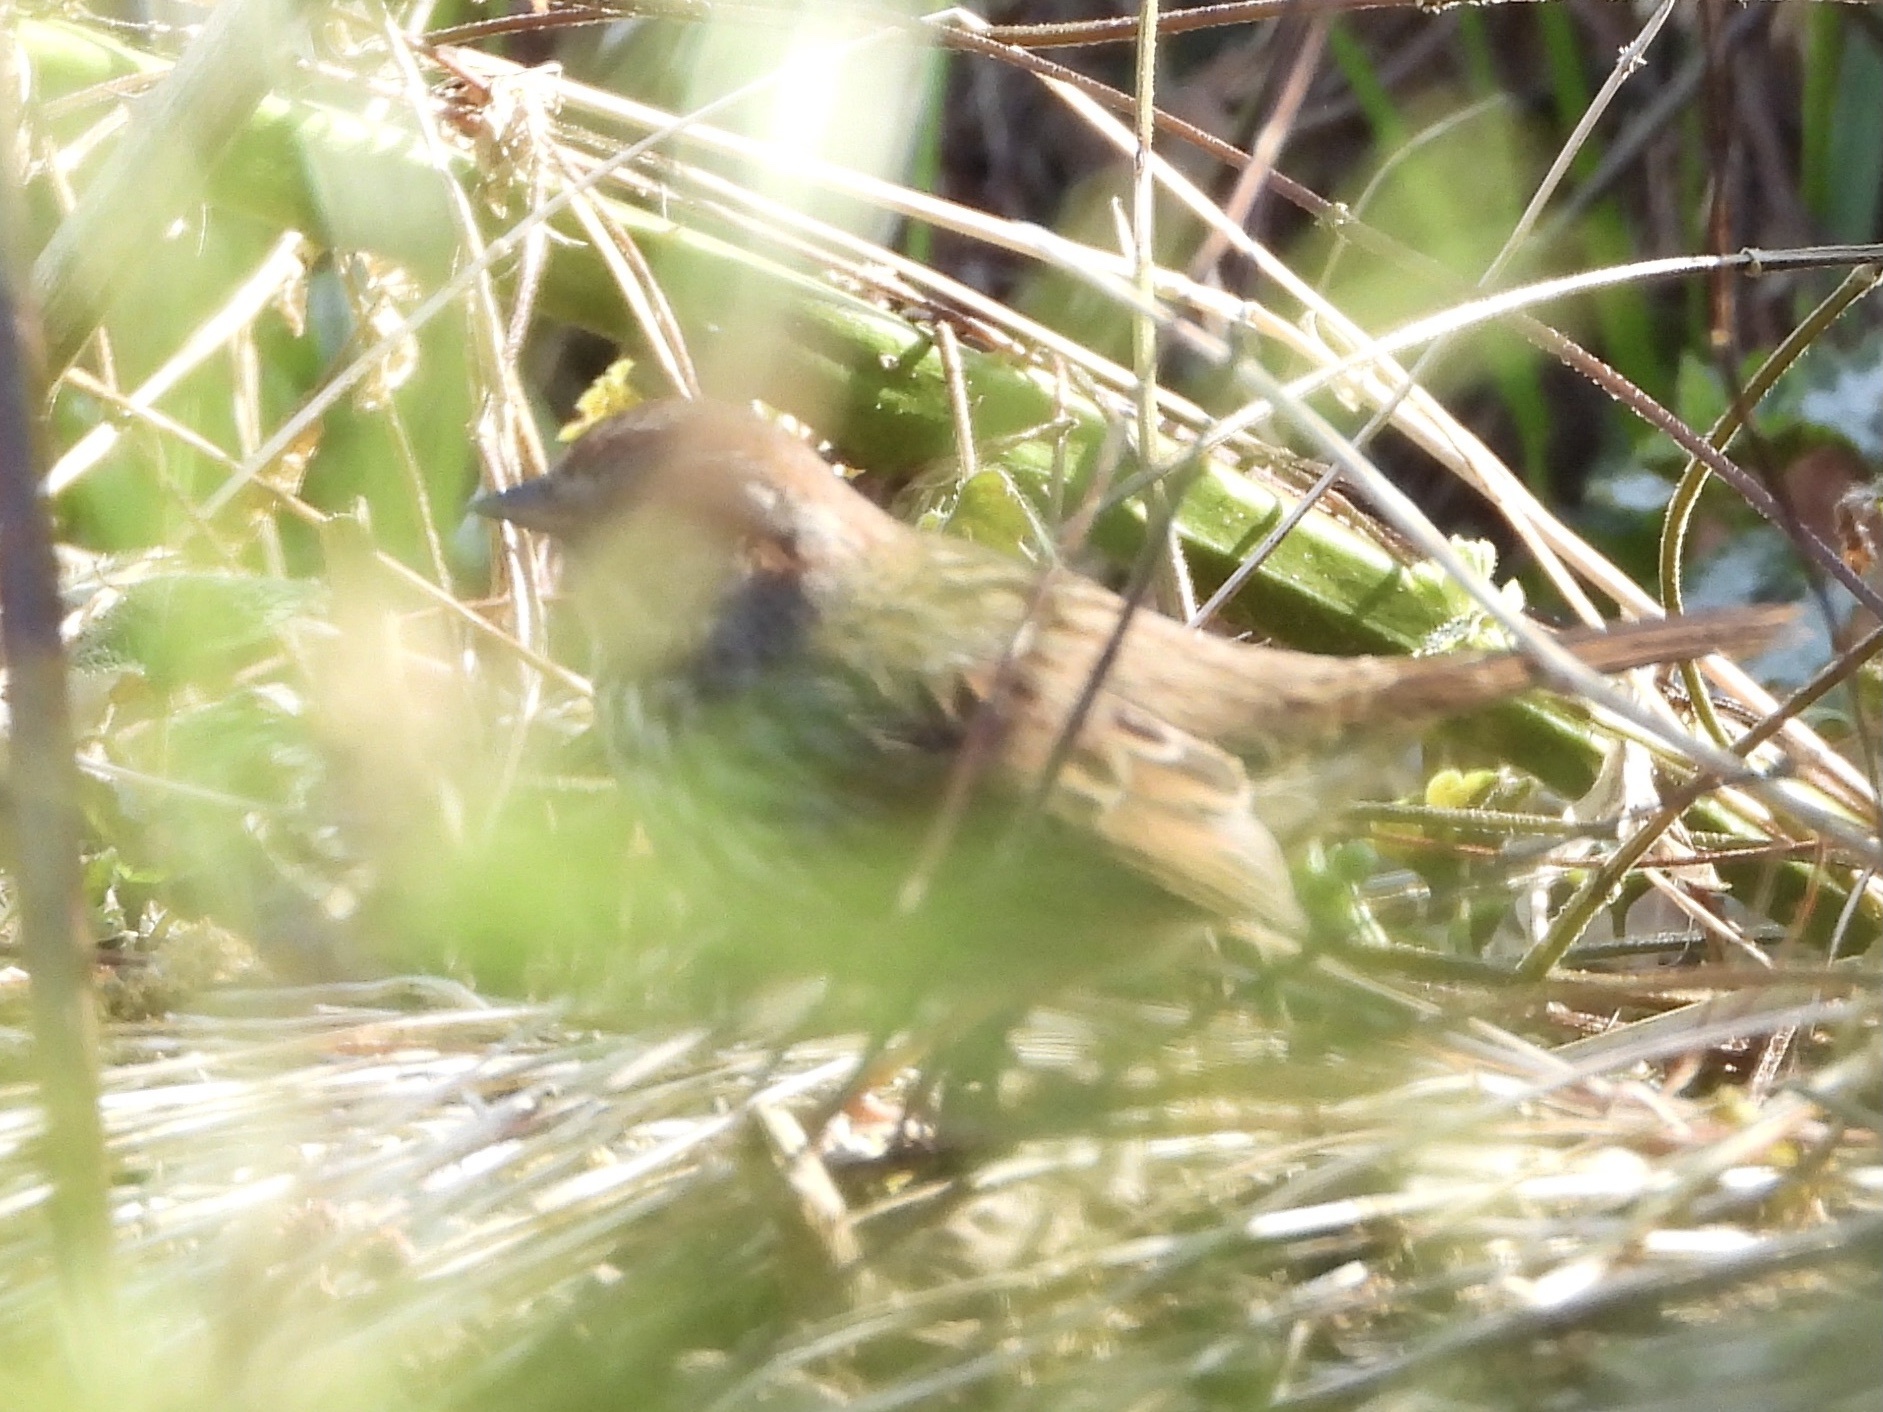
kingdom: Animalia
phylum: Chordata
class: Aves
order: Passeriformes
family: Passerellidae
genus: Melospiza
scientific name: Melospiza melodia
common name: Song sparrow
